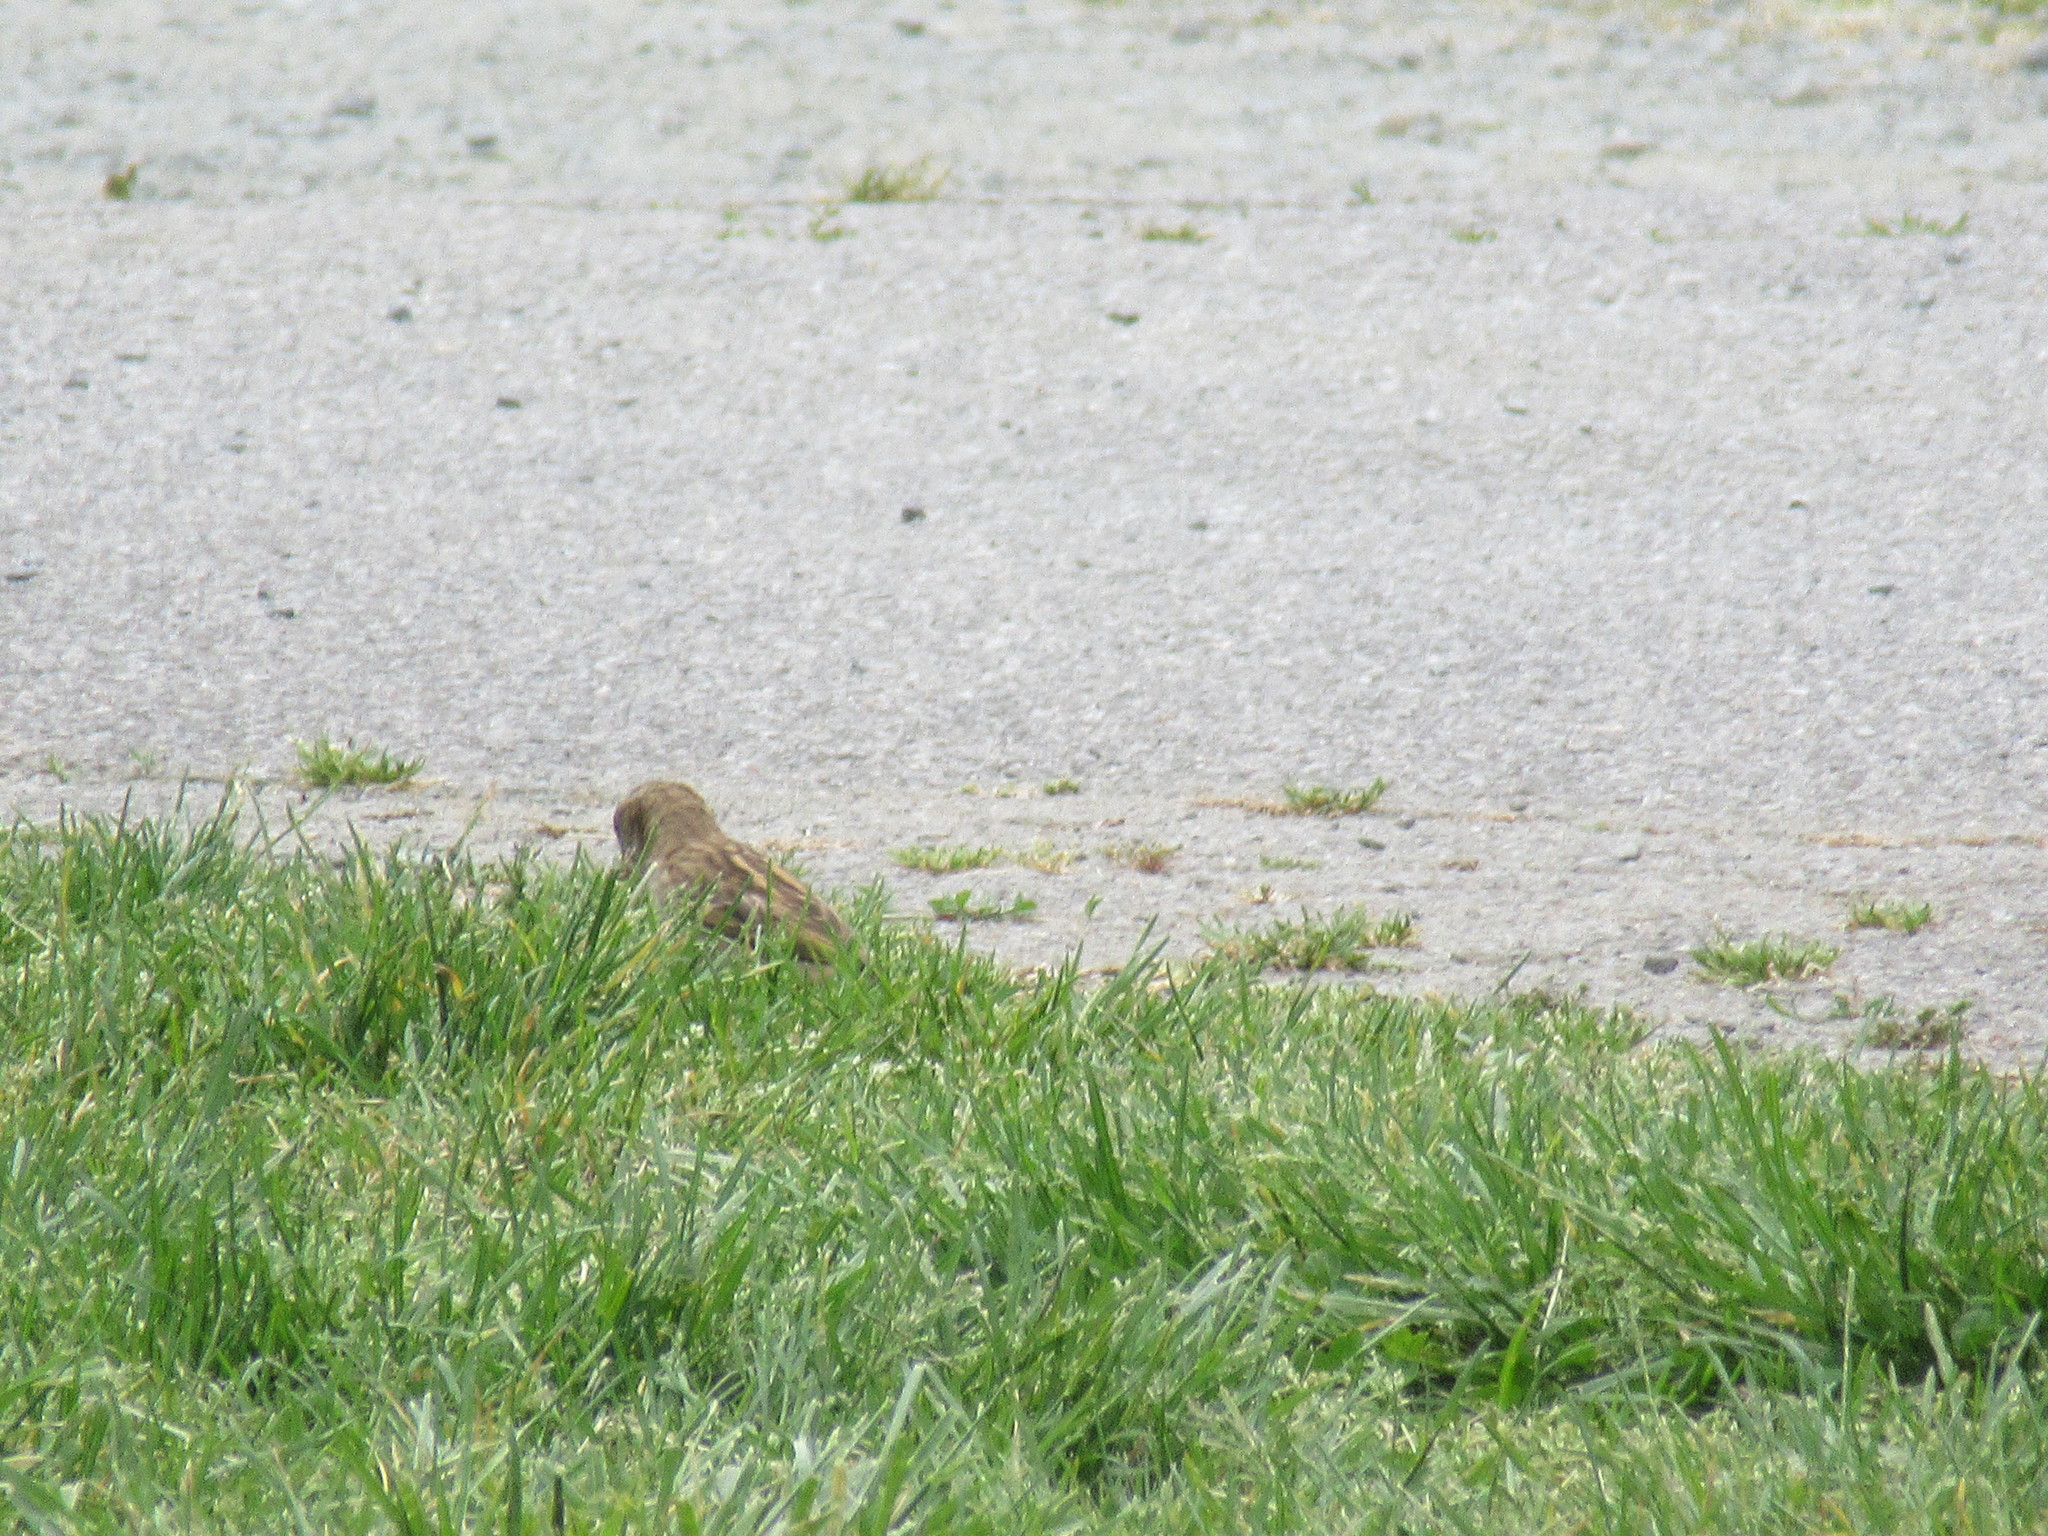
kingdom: Animalia
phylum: Chordata
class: Aves
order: Passeriformes
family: Passeridae
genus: Passer
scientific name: Passer domesticus
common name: House sparrow
